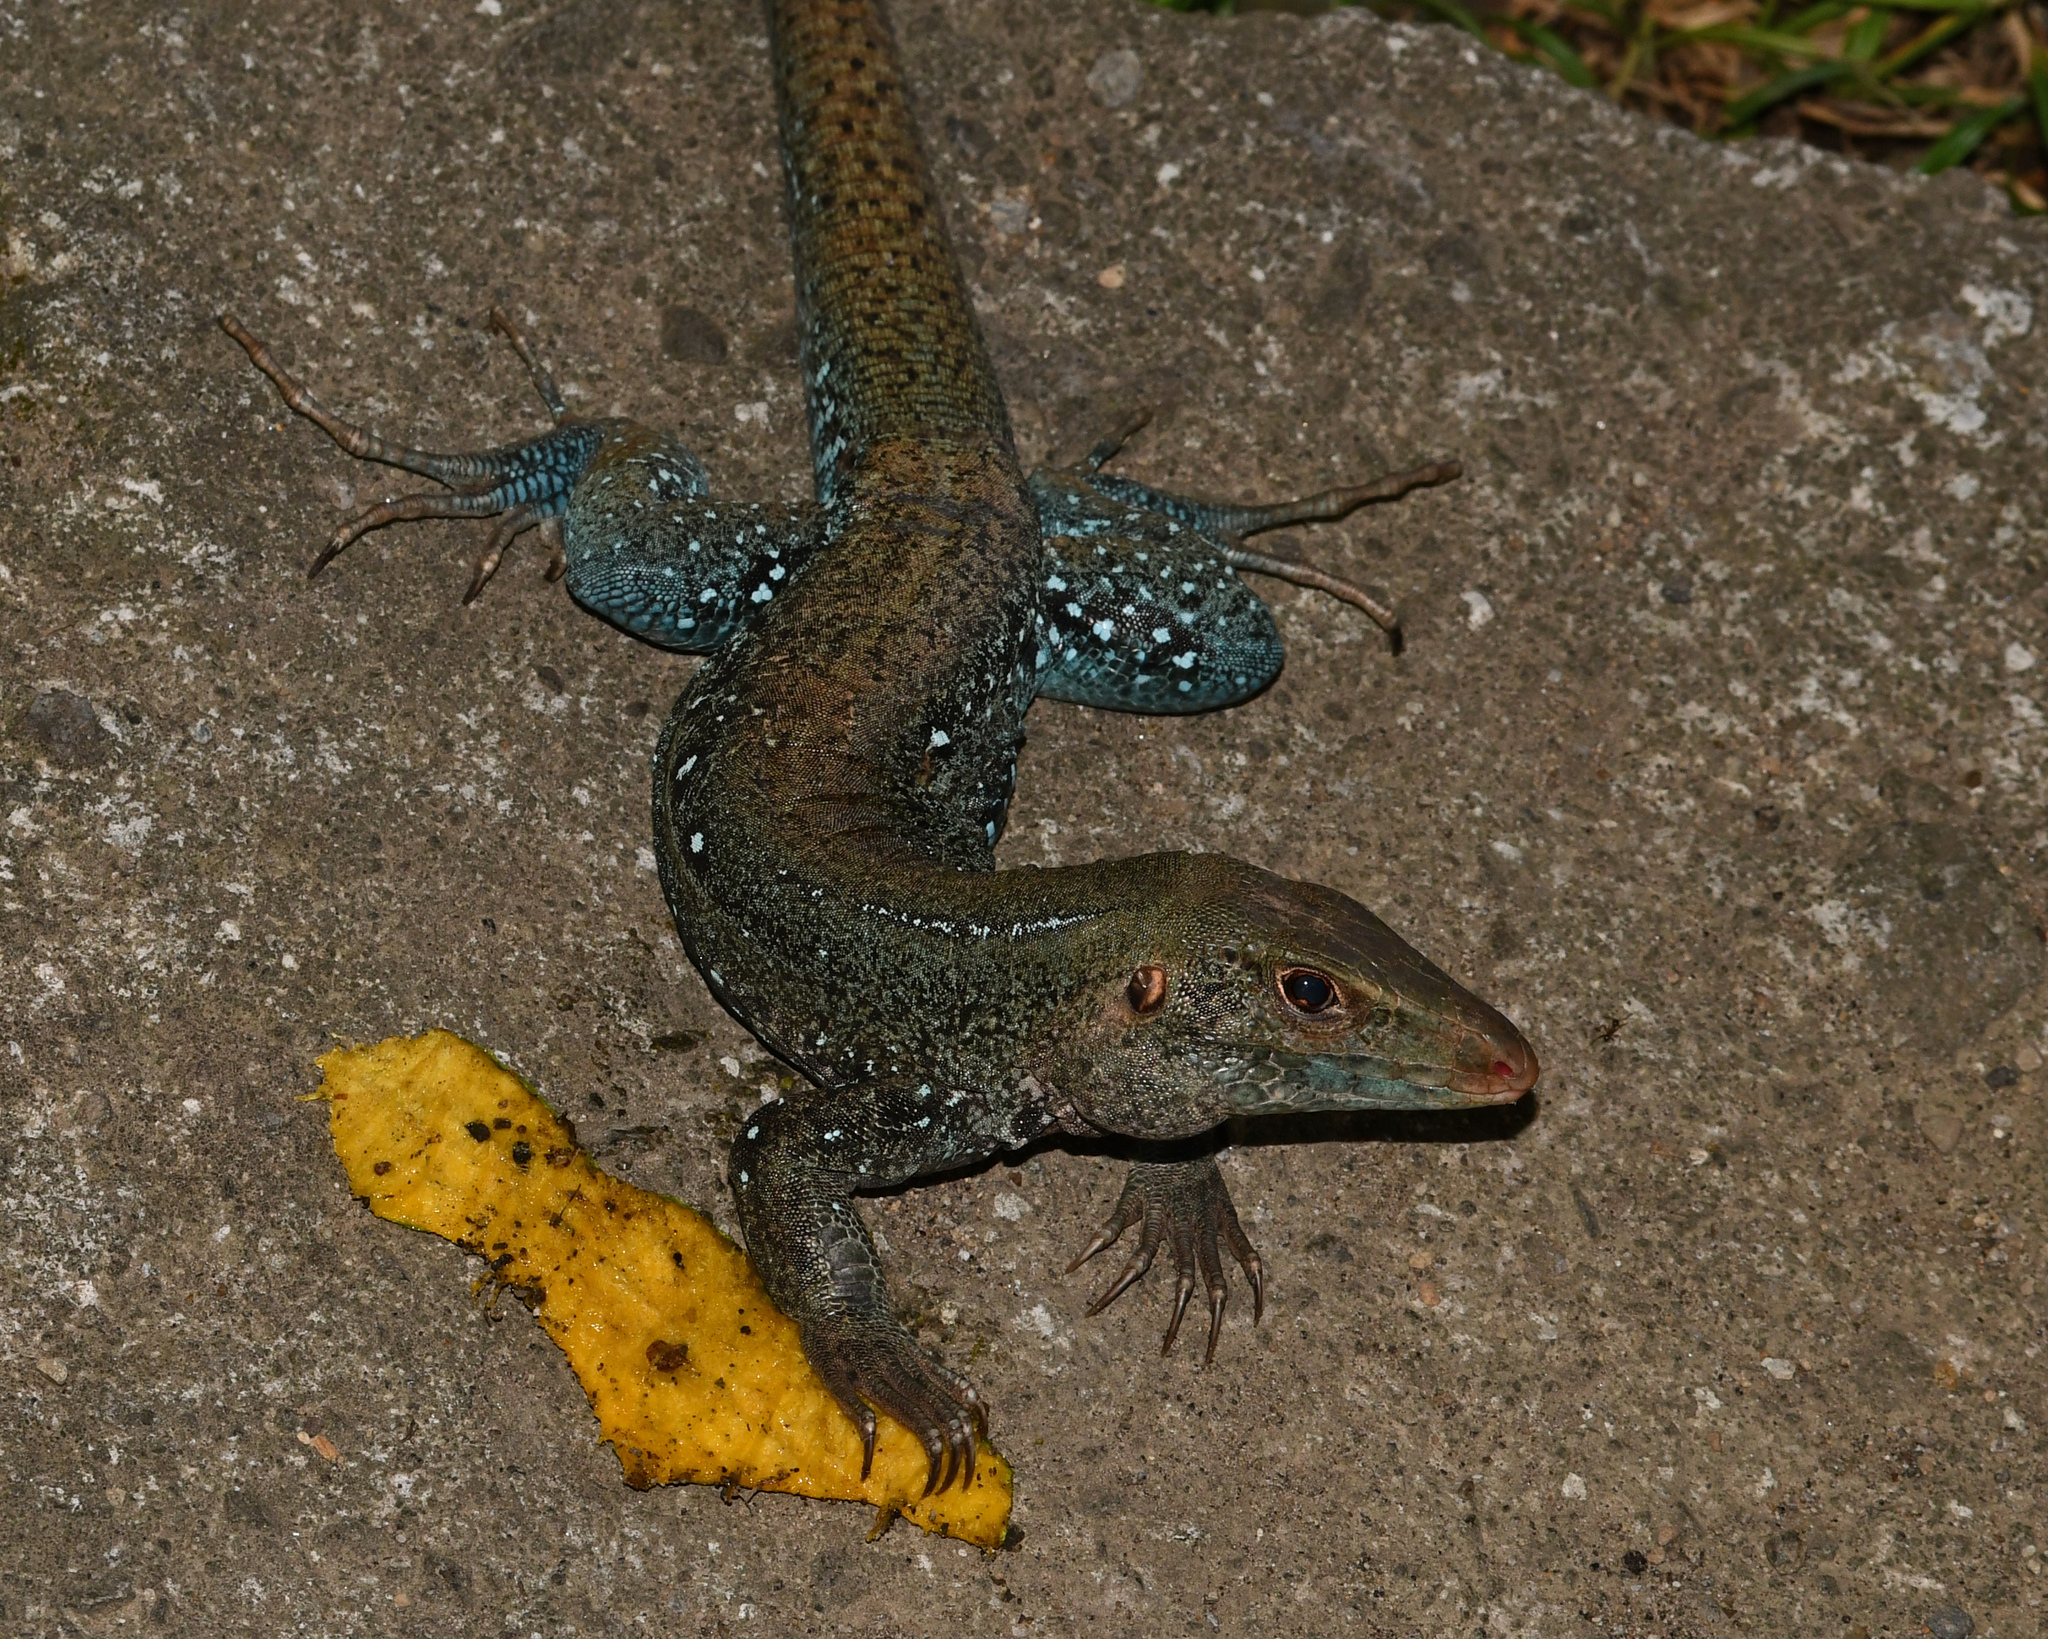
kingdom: Animalia
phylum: Chordata
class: Squamata
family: Teiidae
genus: Pholidoscelis
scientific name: Pholidoscelis fuscatus
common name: Dominican ameiva
